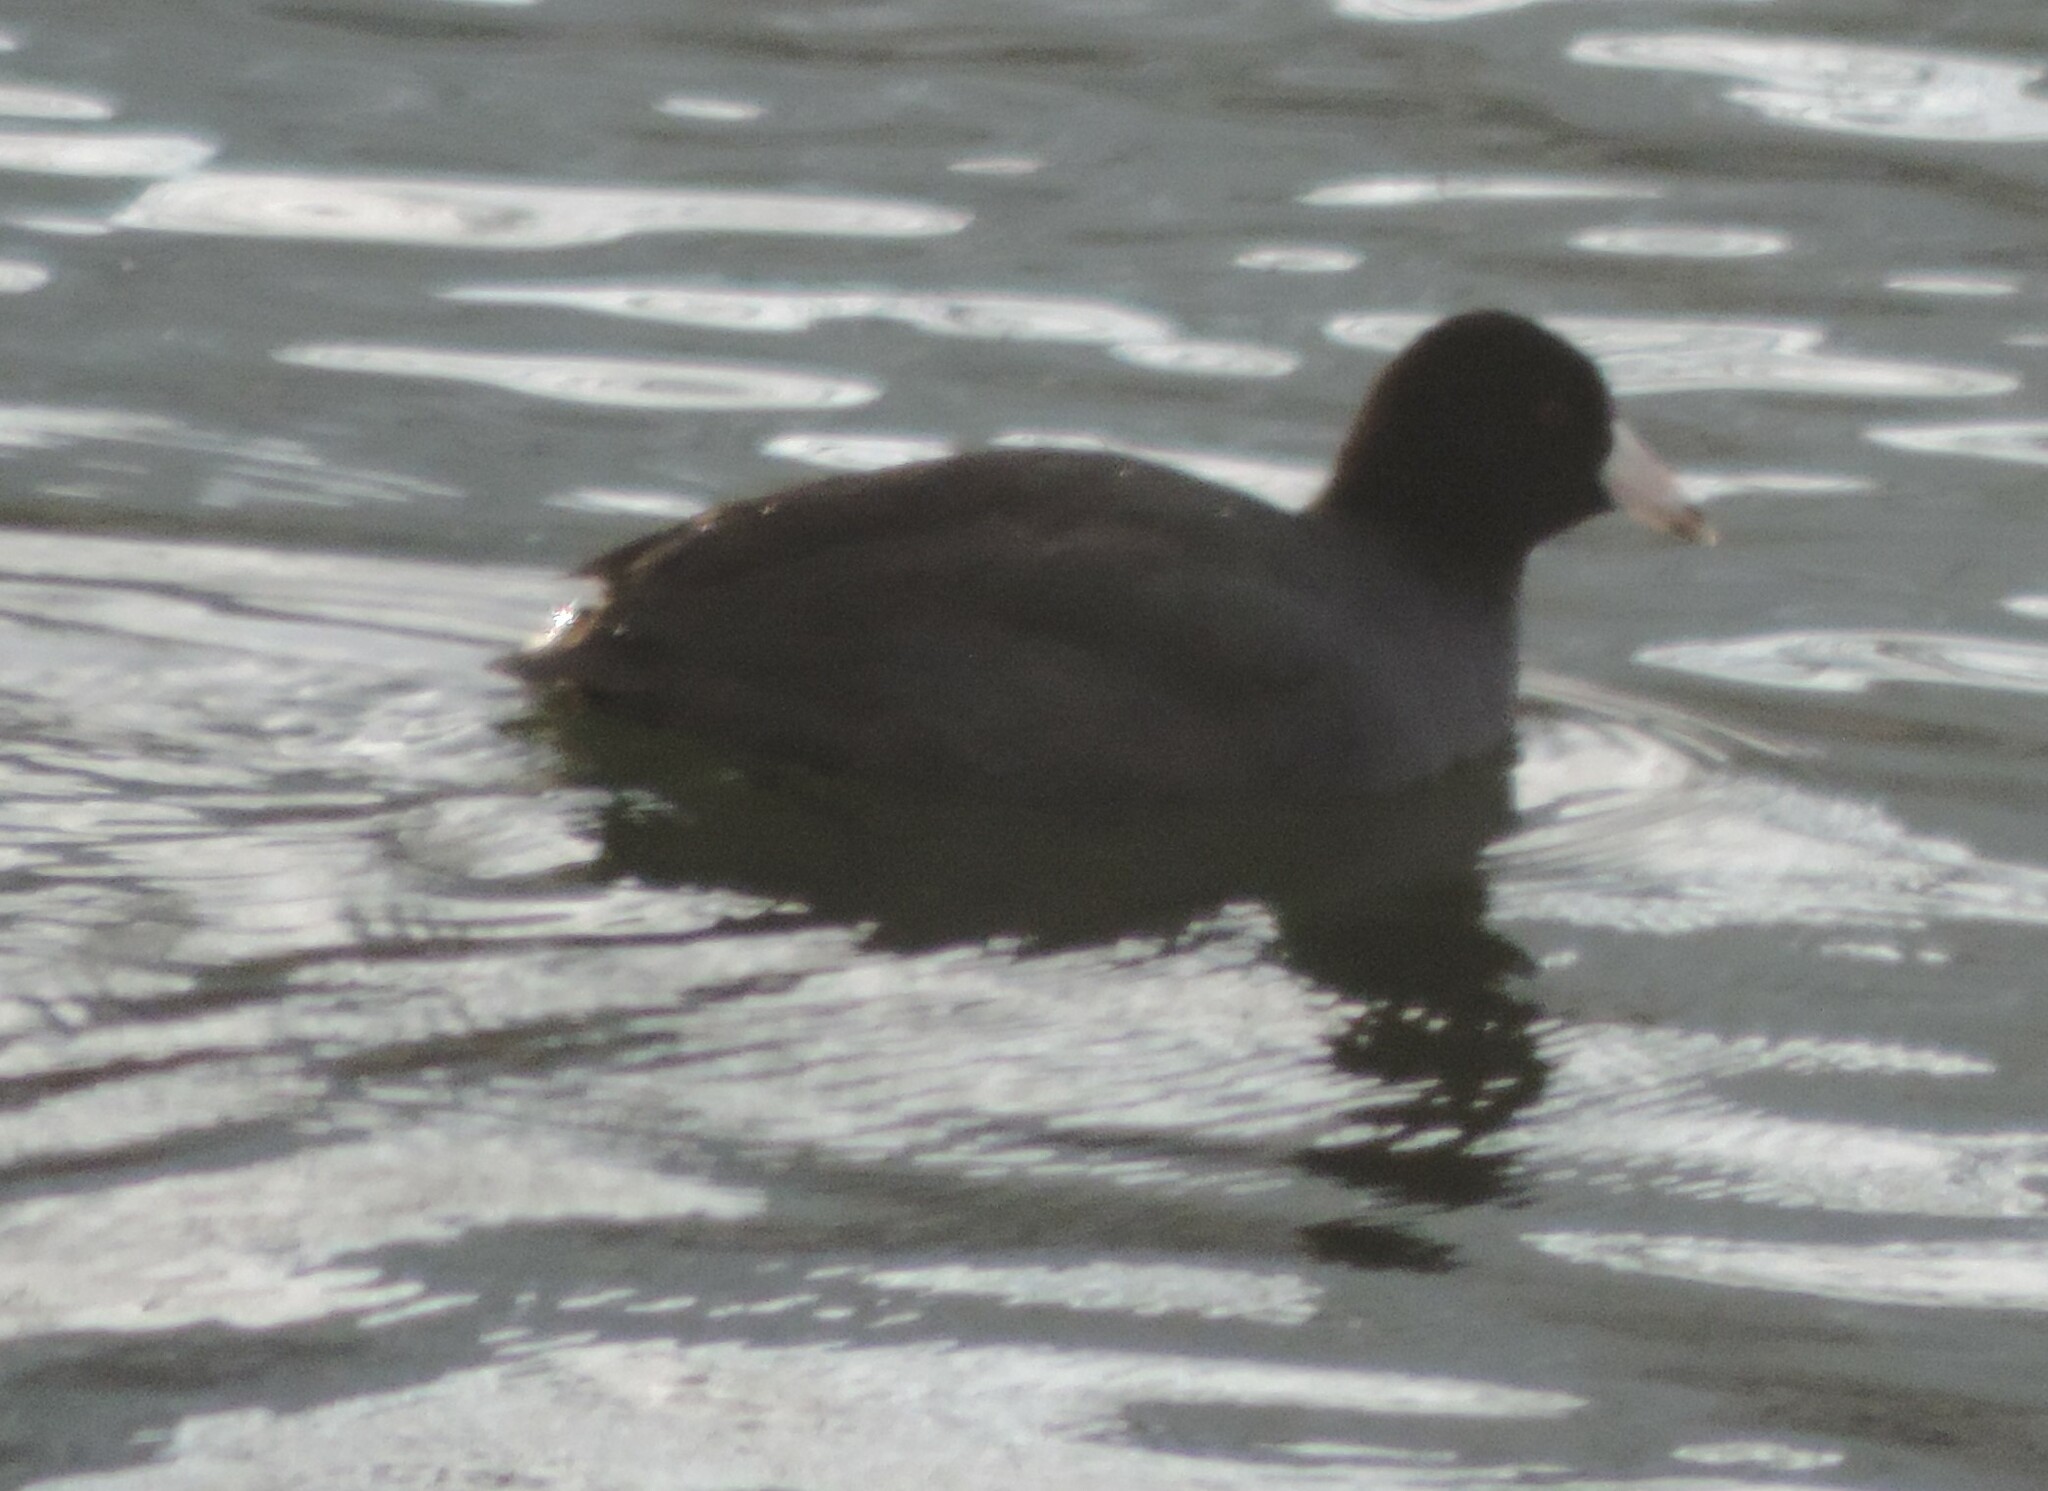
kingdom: Animalia
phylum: Chordata
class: Aves
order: Gruiformes
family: Rallidae
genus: Fulica
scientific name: Fulica americana
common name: American coot
